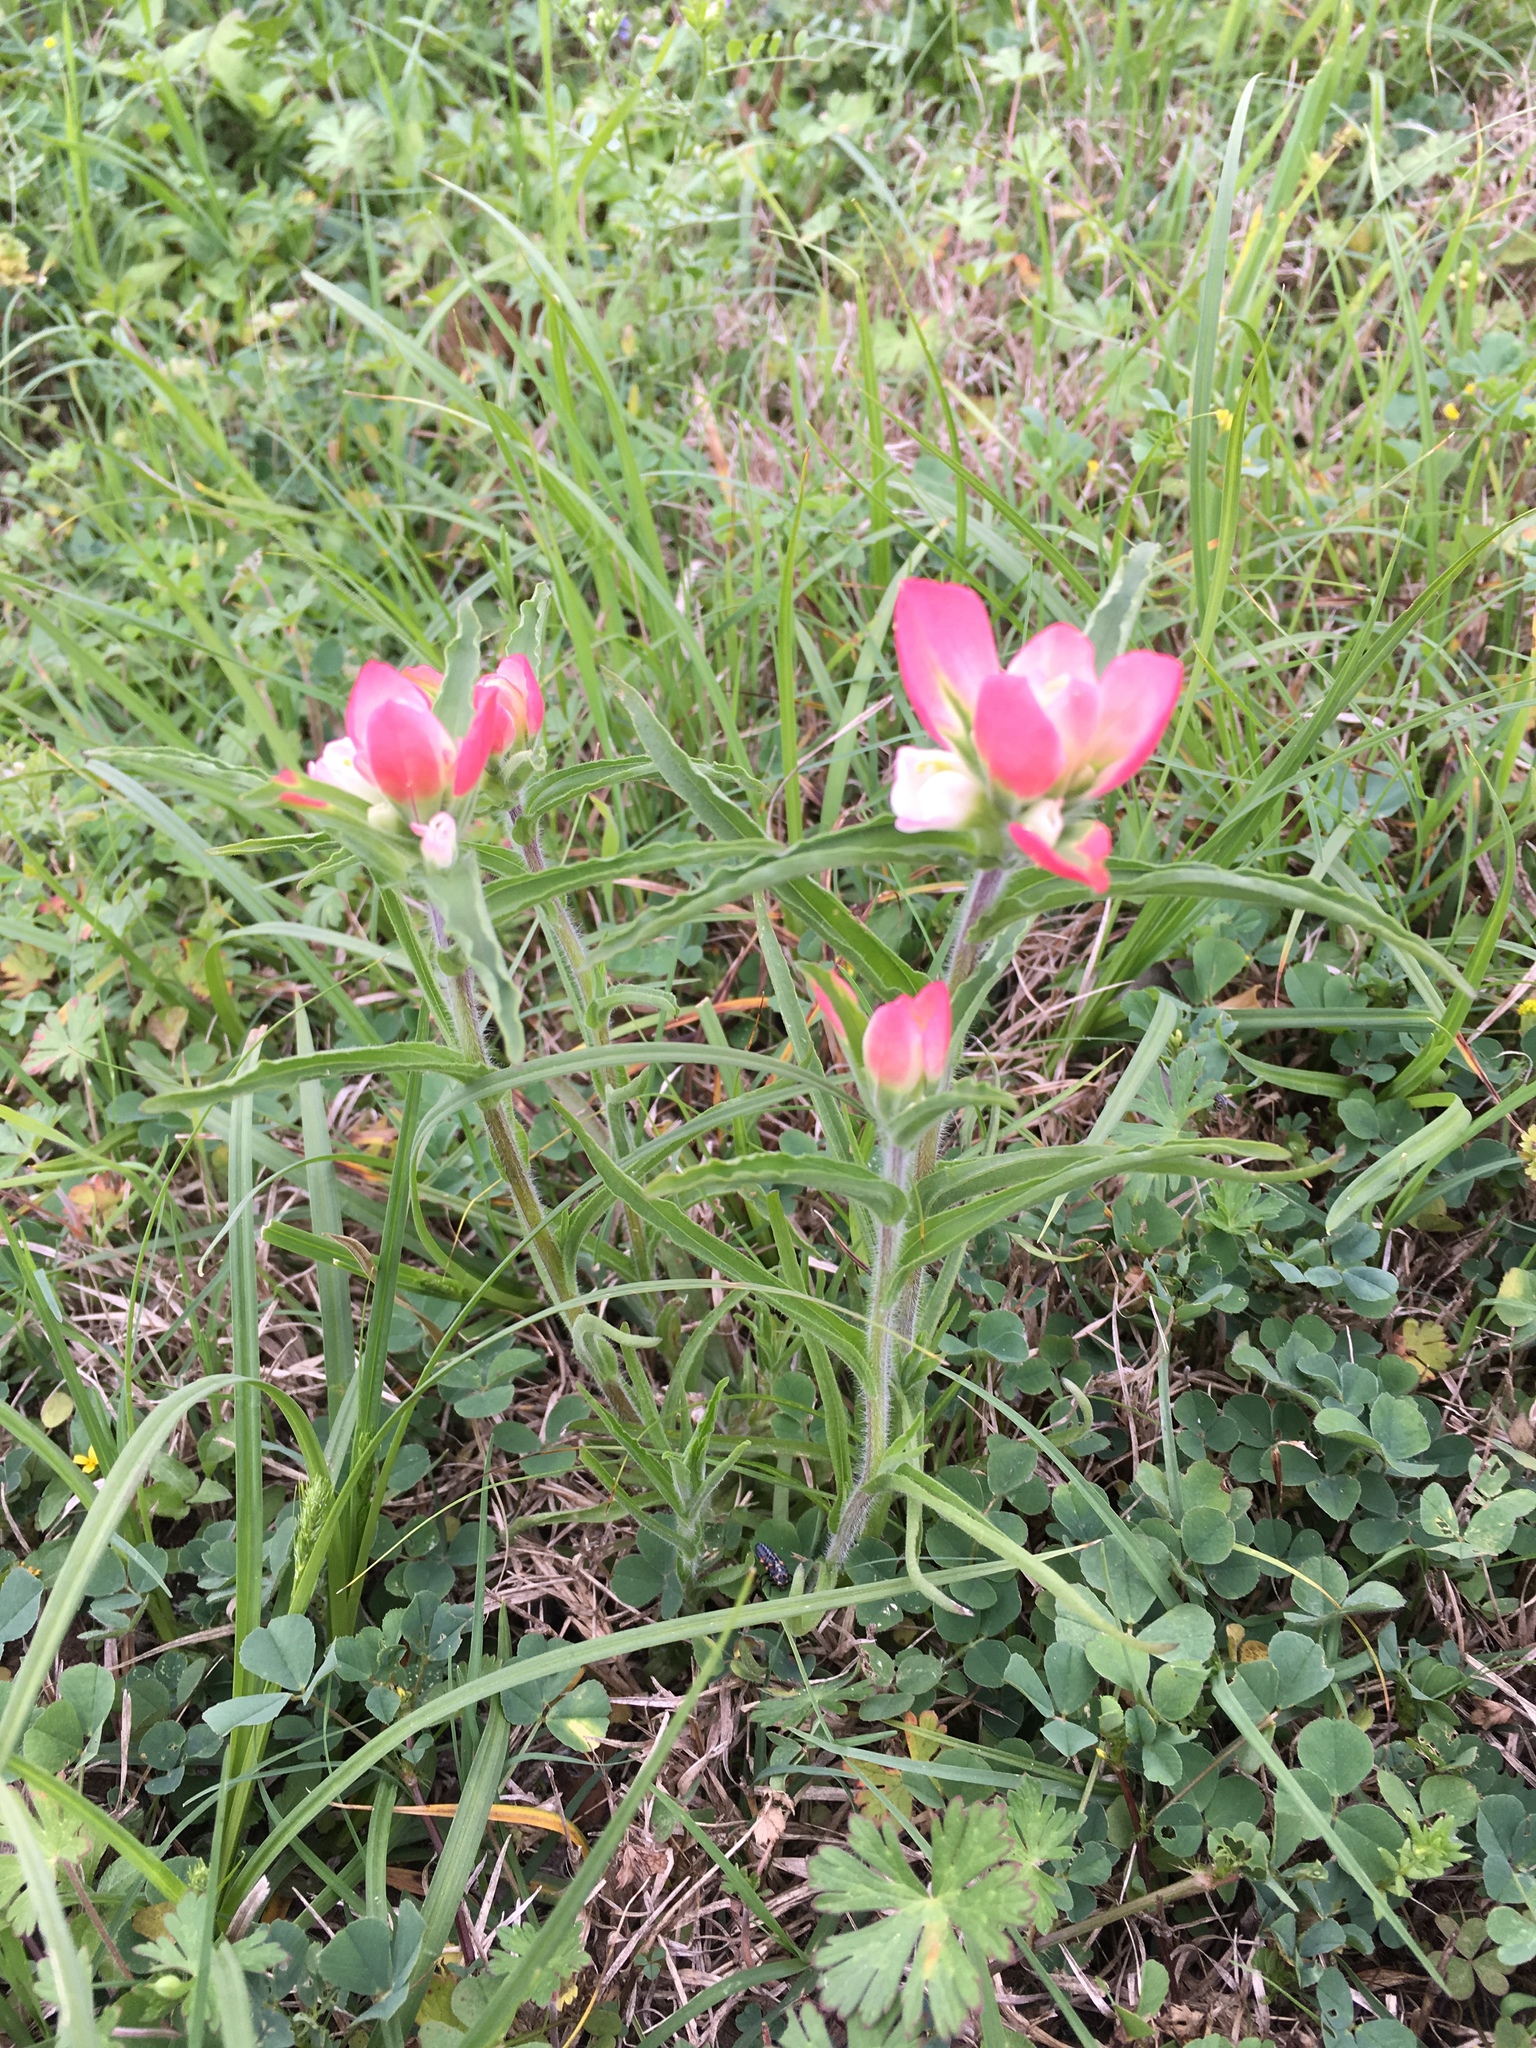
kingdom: Plantae
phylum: Tracheophyta
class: Magnoliopsida
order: Lamiales
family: Orobanchaceae
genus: Castilleja
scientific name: Castilleja indivisa
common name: Texas paintbrush
